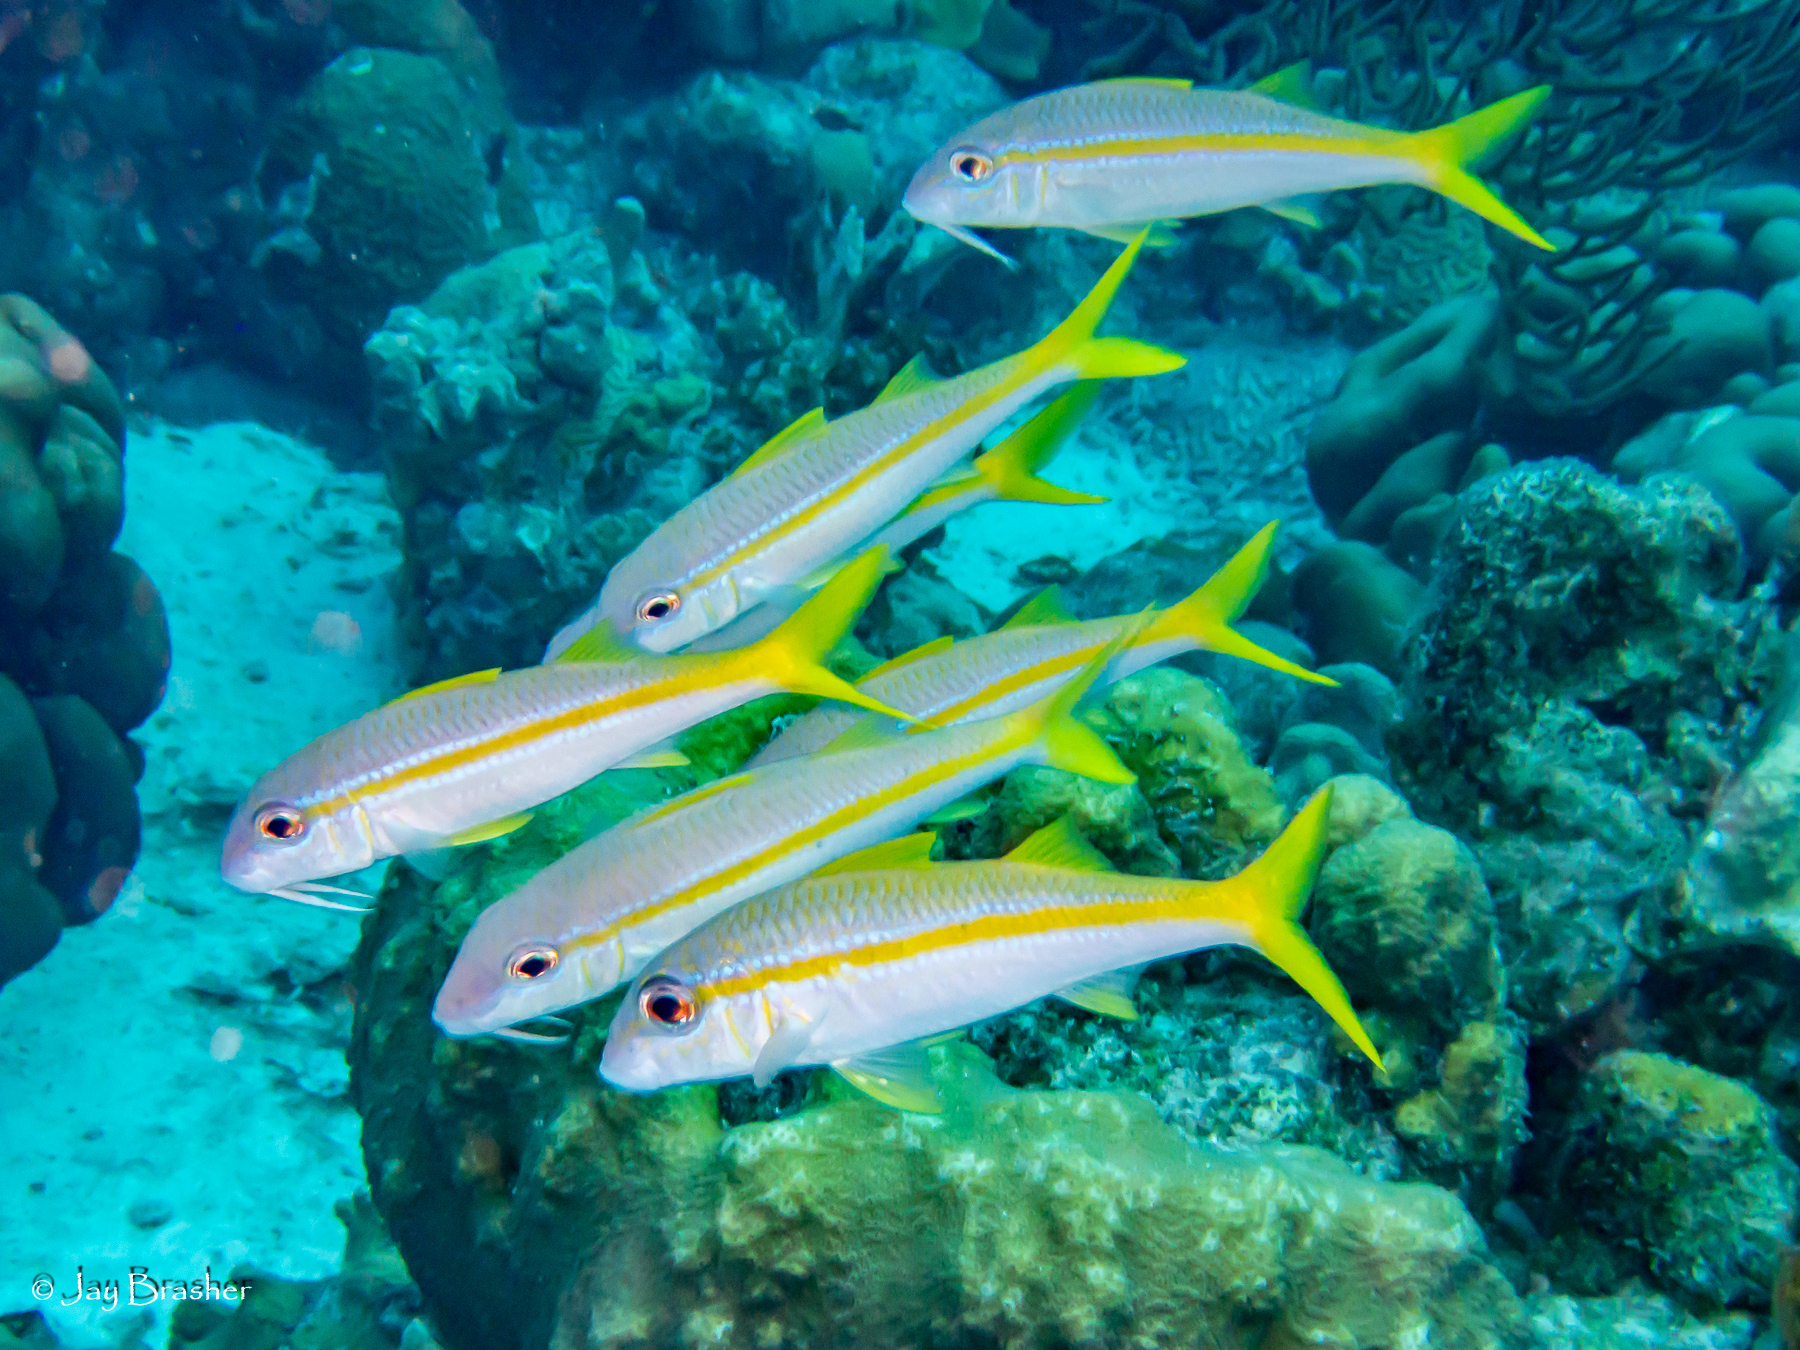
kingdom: Animalia
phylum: Chordata
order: Perciformes
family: Mullidae
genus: Mulloidichthys
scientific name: Mulloidichthys martinicus
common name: Yellow goatfish
